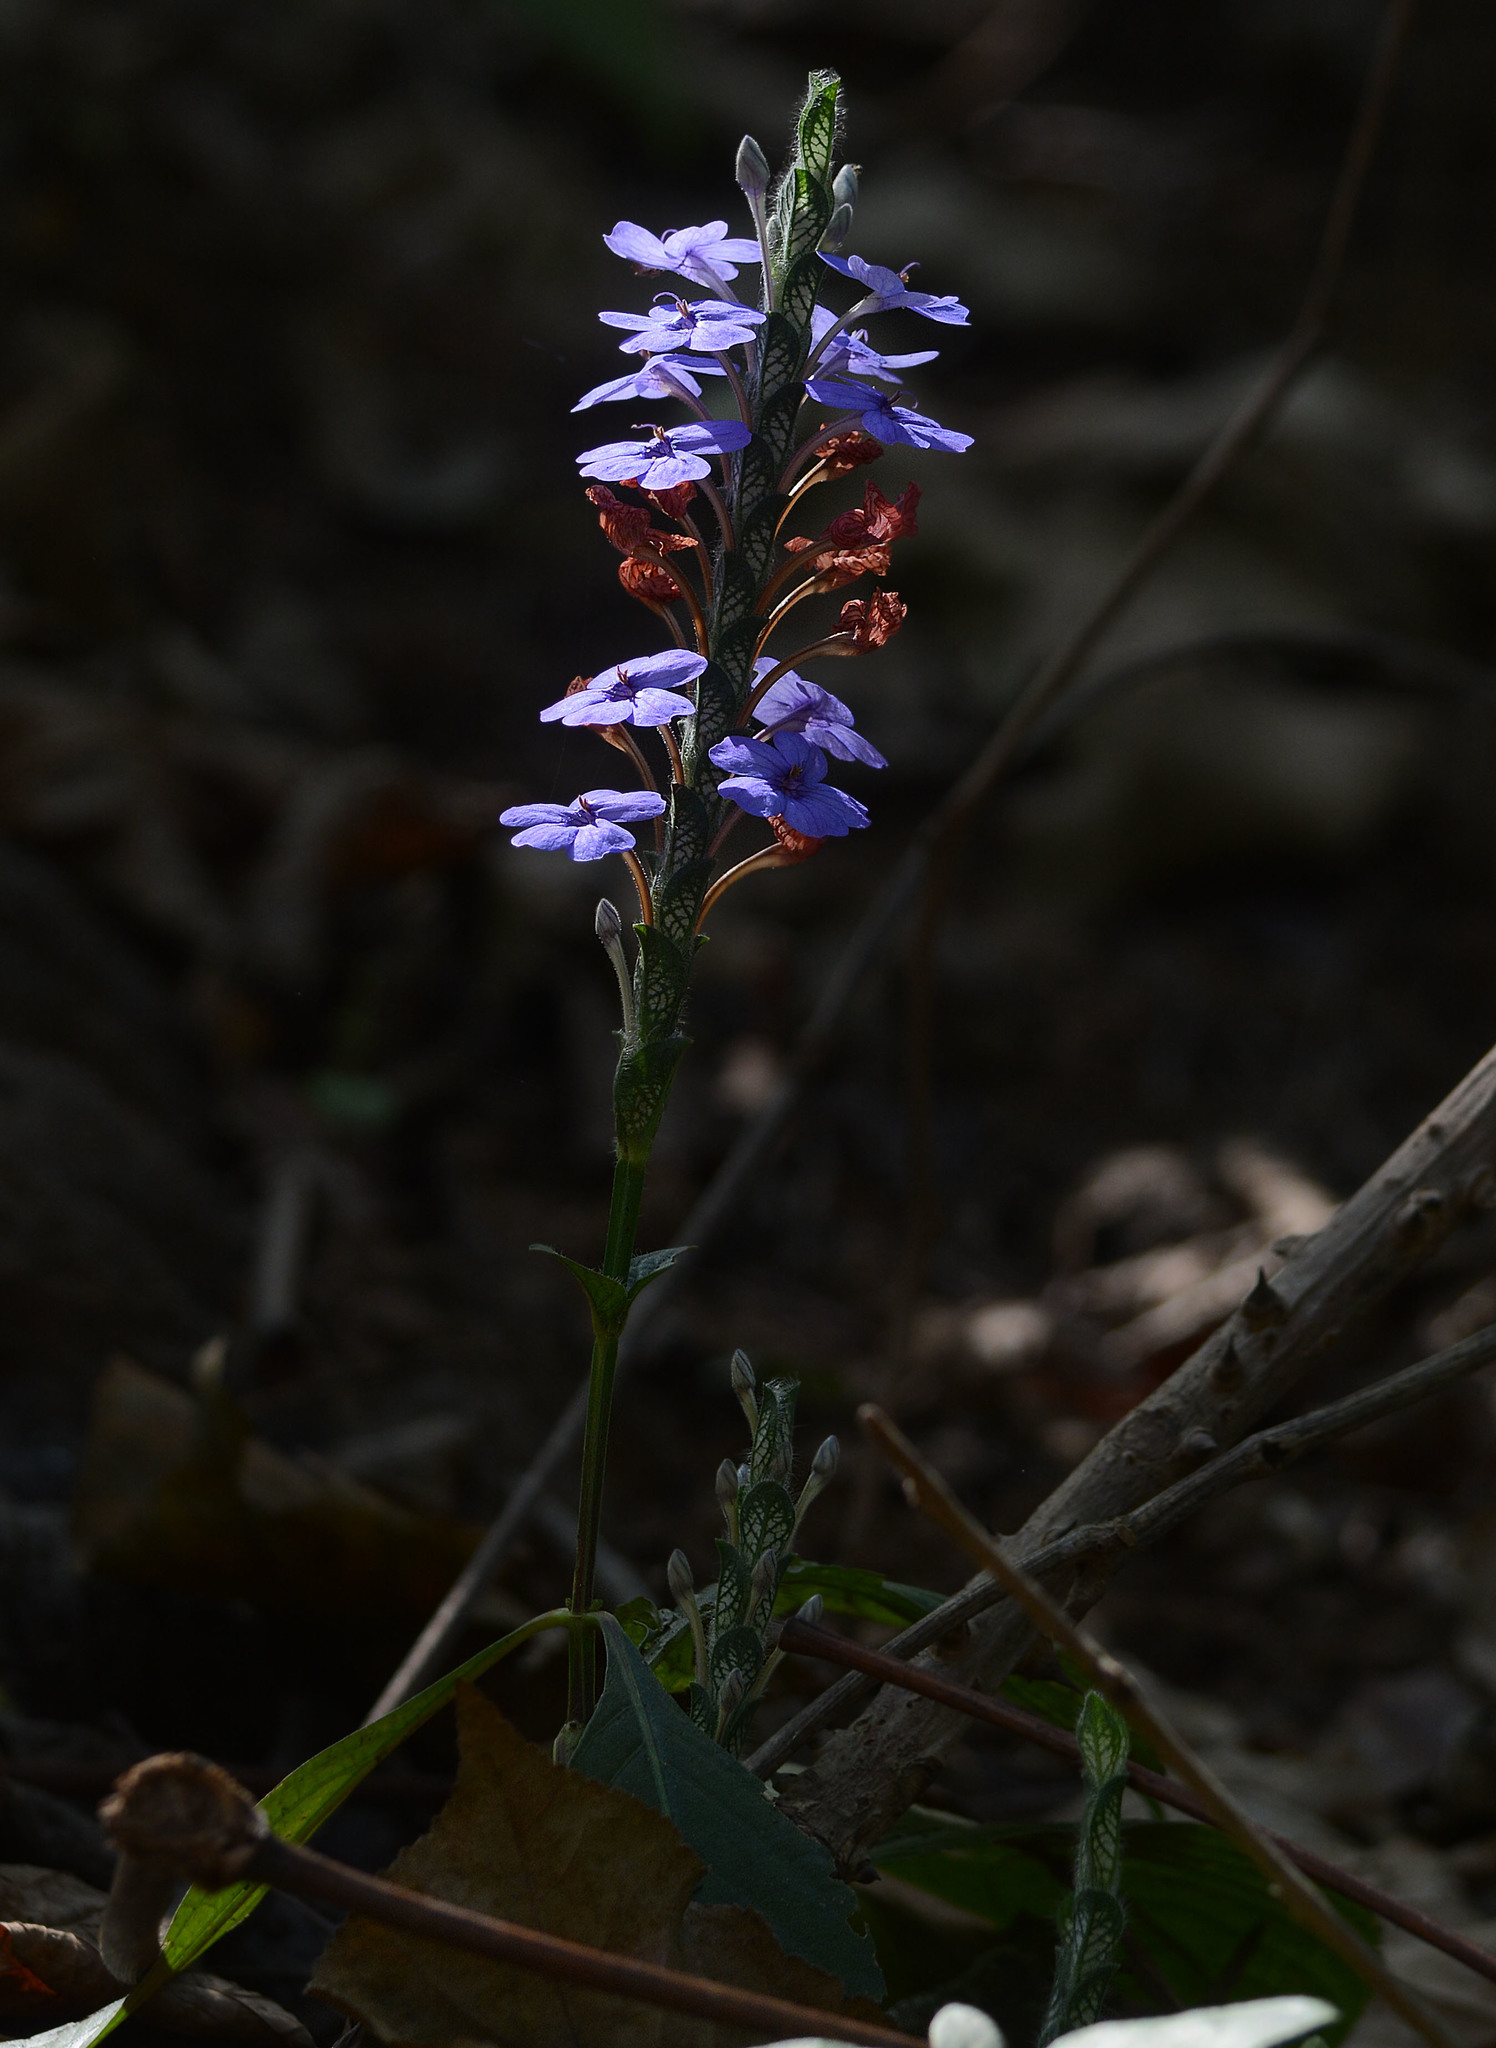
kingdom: Plantae
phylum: Tracheophyta
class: Magnoliopsida
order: Lamiales
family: Acanthaceae
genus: Eranthemum
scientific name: Eranthemum roseum
